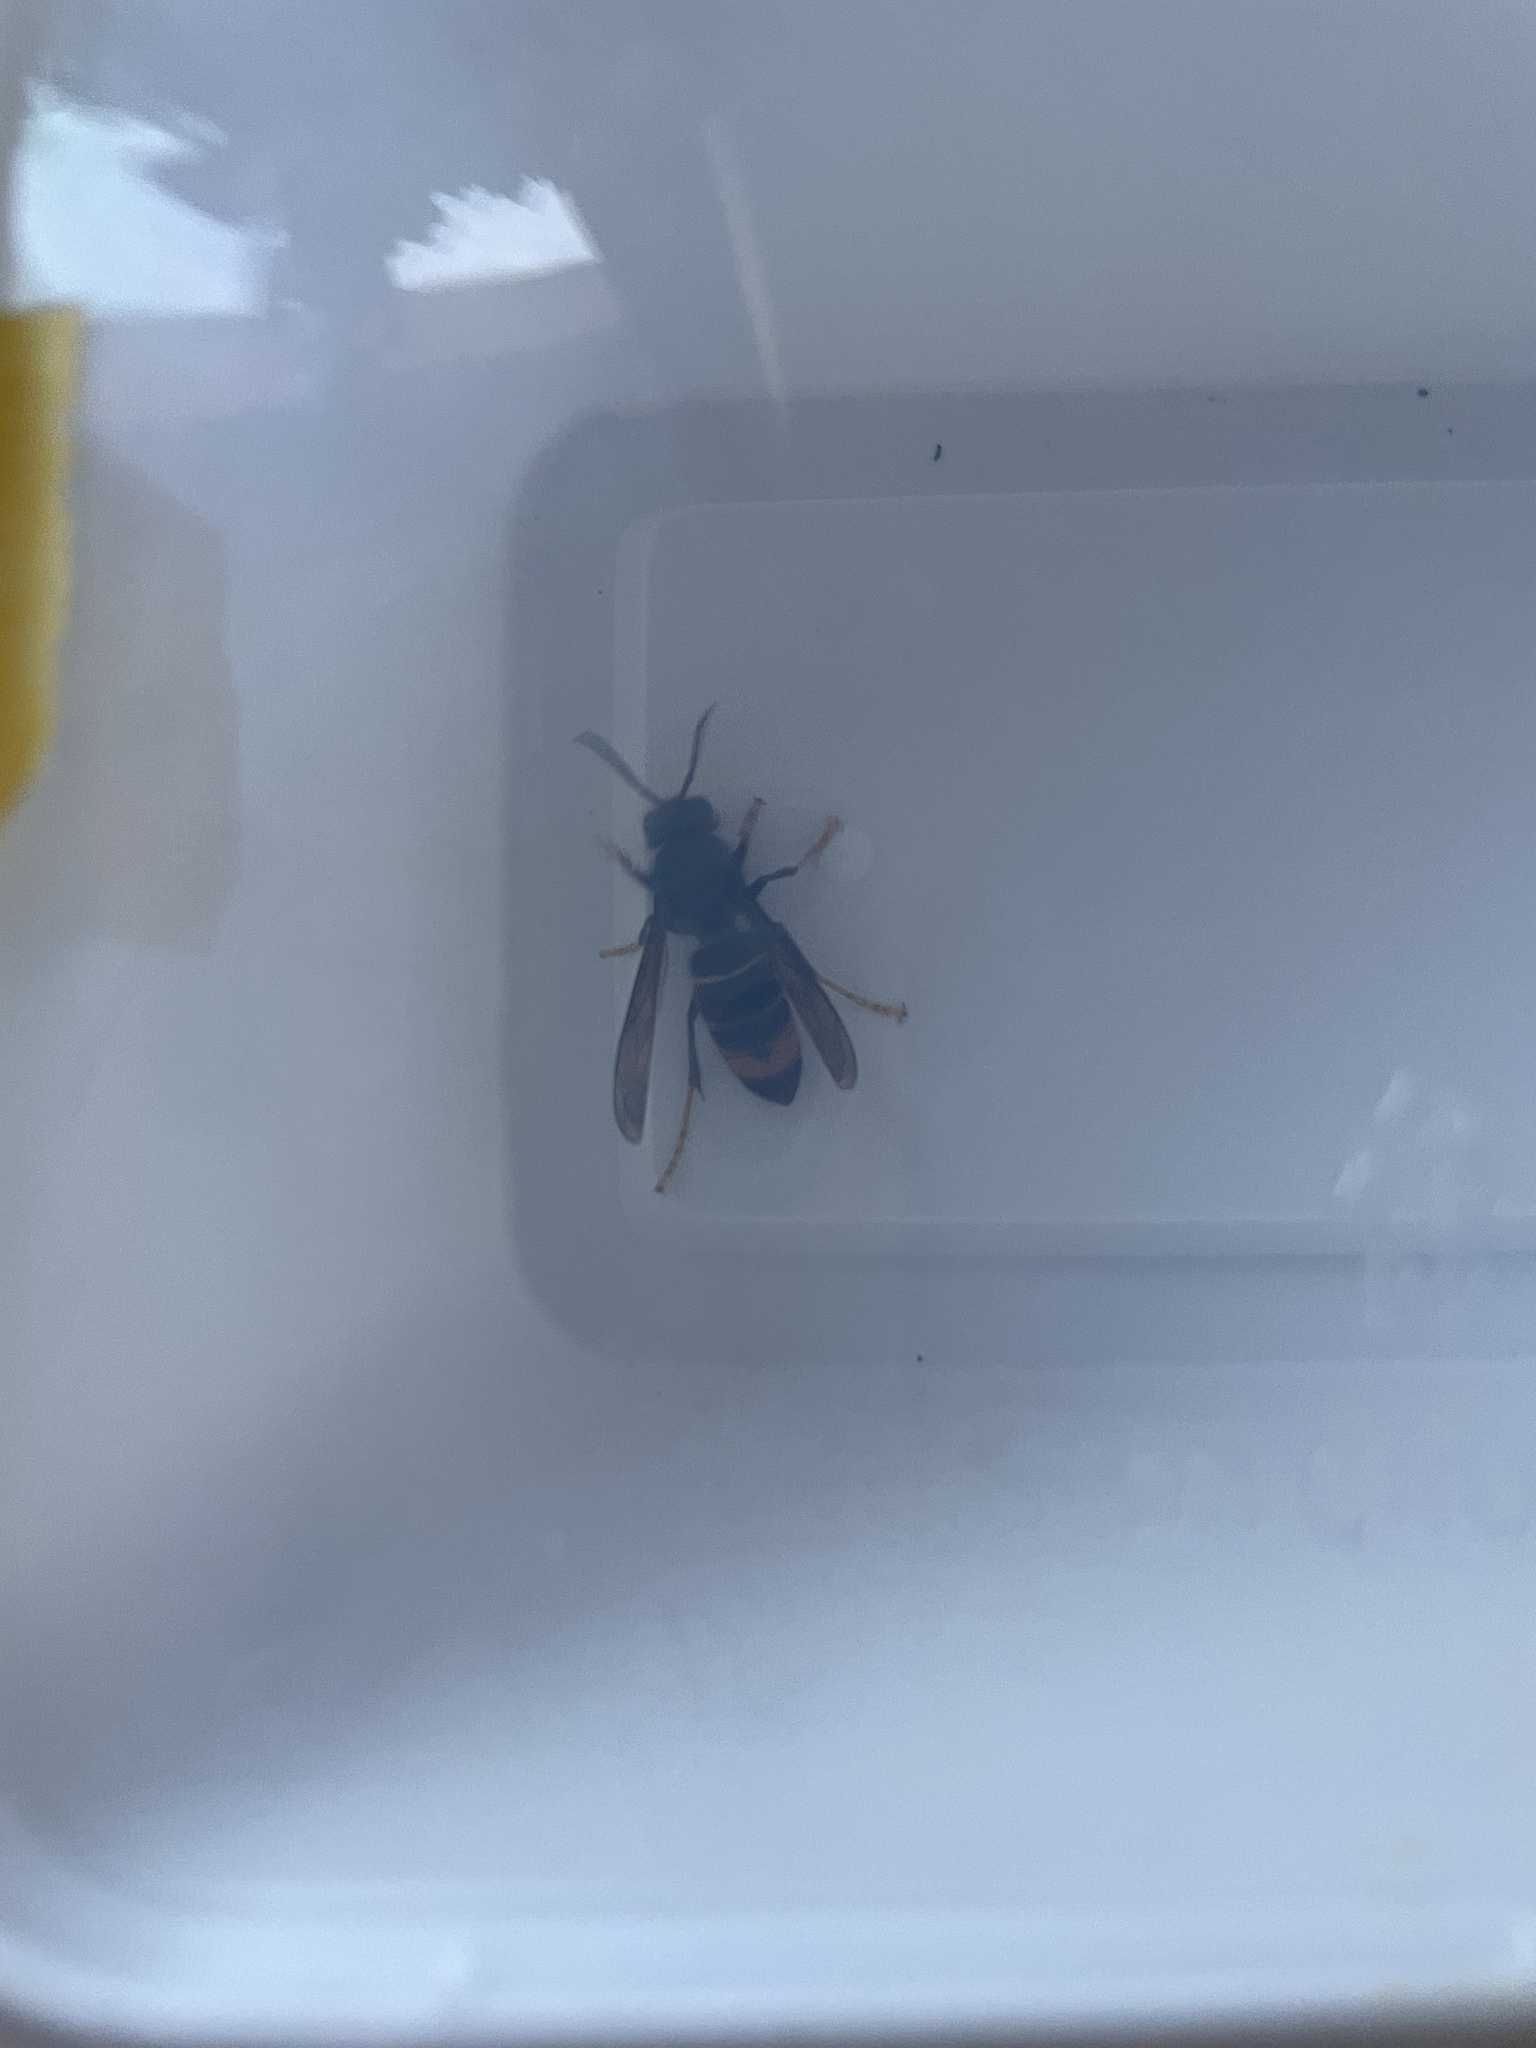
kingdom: Animalia
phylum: Arthropoda
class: Insecta
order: Hymenoptera
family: Vespidae
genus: Vespa
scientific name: Vespa velutina
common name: Asian hornet
